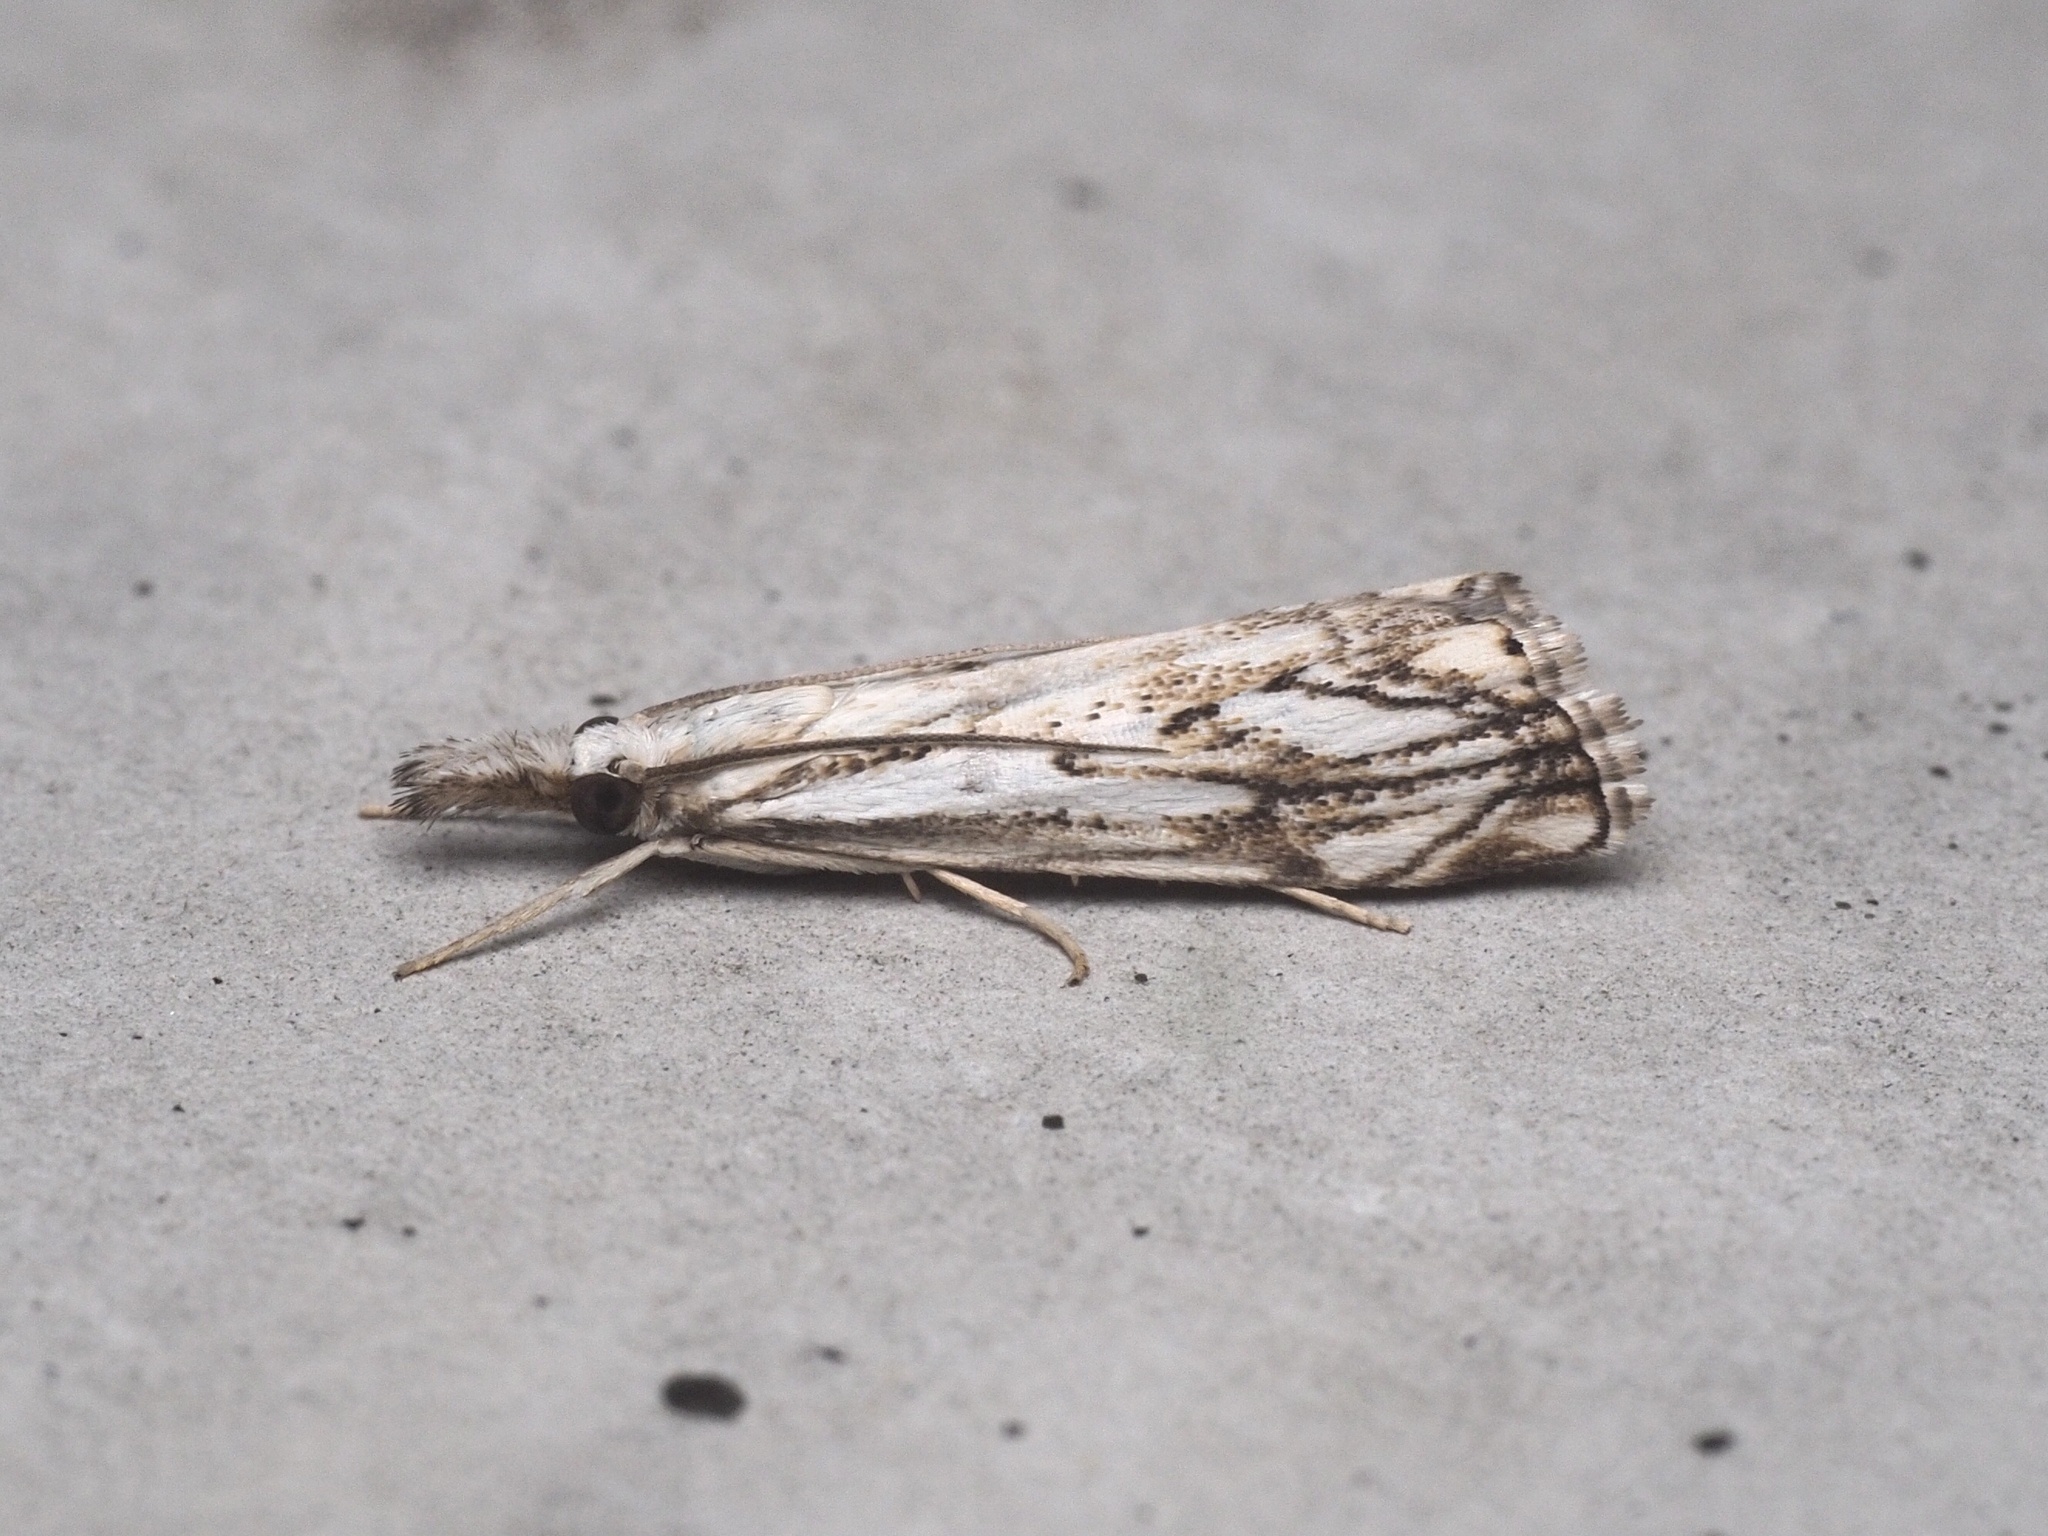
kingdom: Animalia
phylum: Arthropoda
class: Insecta
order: Lepidoptera
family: Crambidae
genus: Catoptria
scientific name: Catoptria falsella
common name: Chequered grass-veneer
